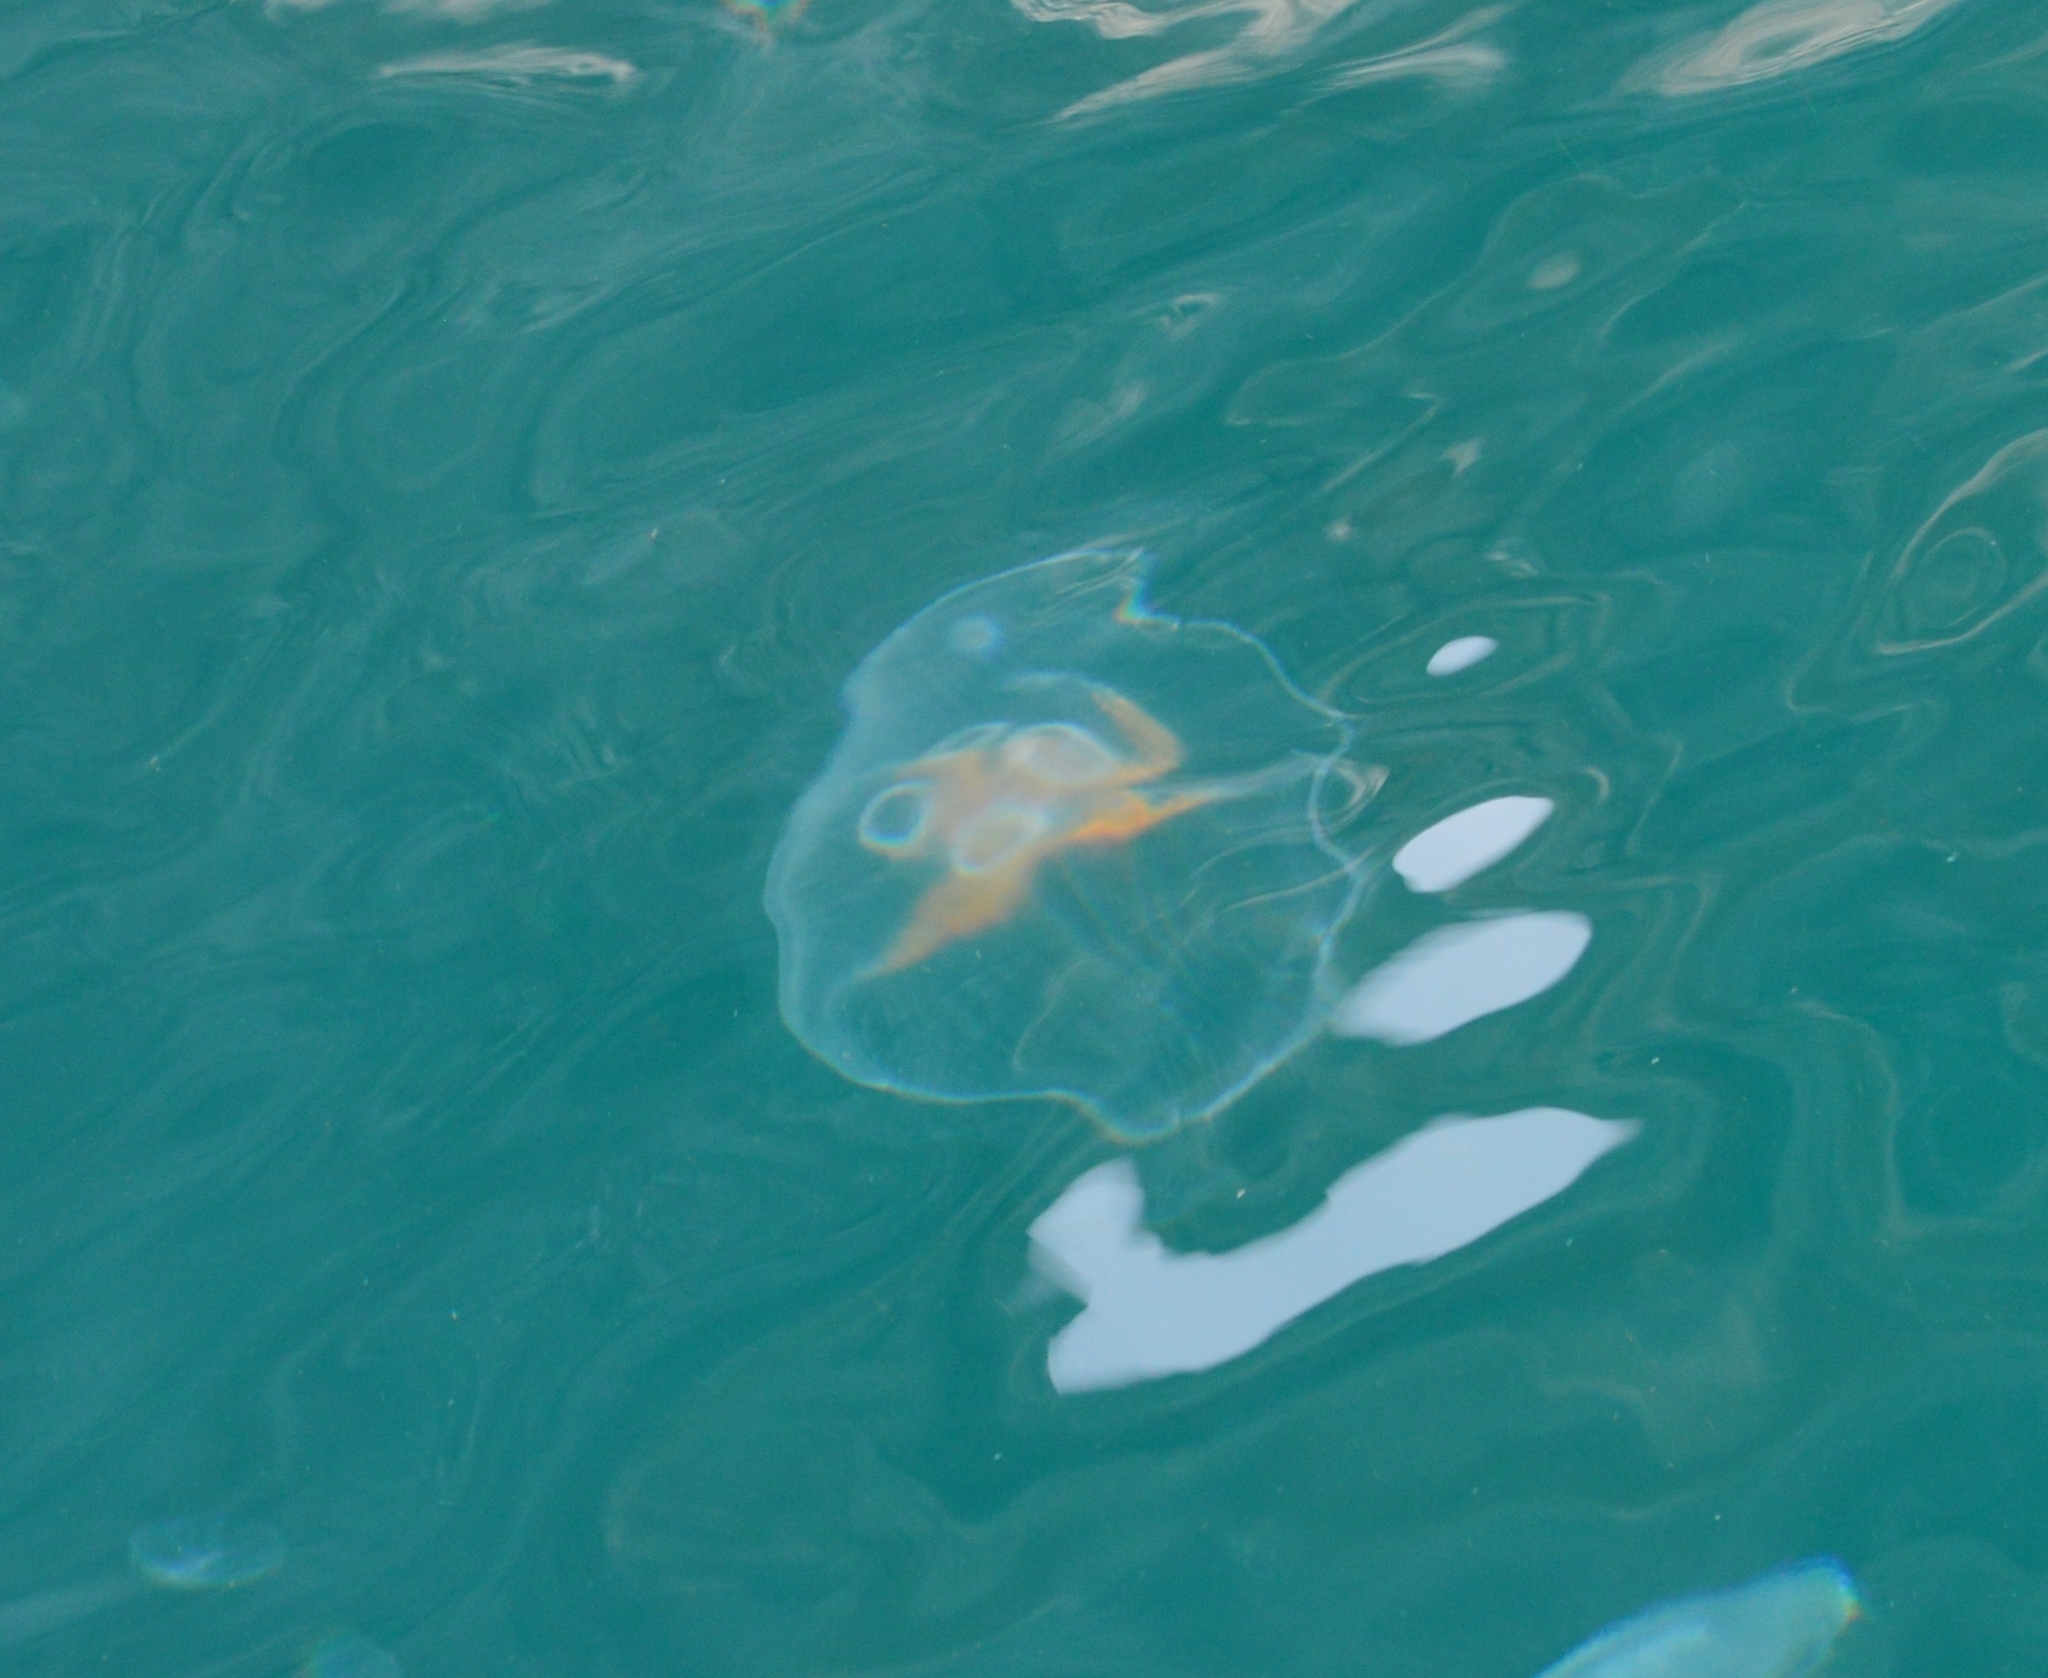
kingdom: Animalia
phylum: Cnidaria
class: Scyphozoa
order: Semaeostomeae
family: Ulmaridae
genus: Aurelia
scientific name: Aurelia aurita
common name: Moon jellyfish
